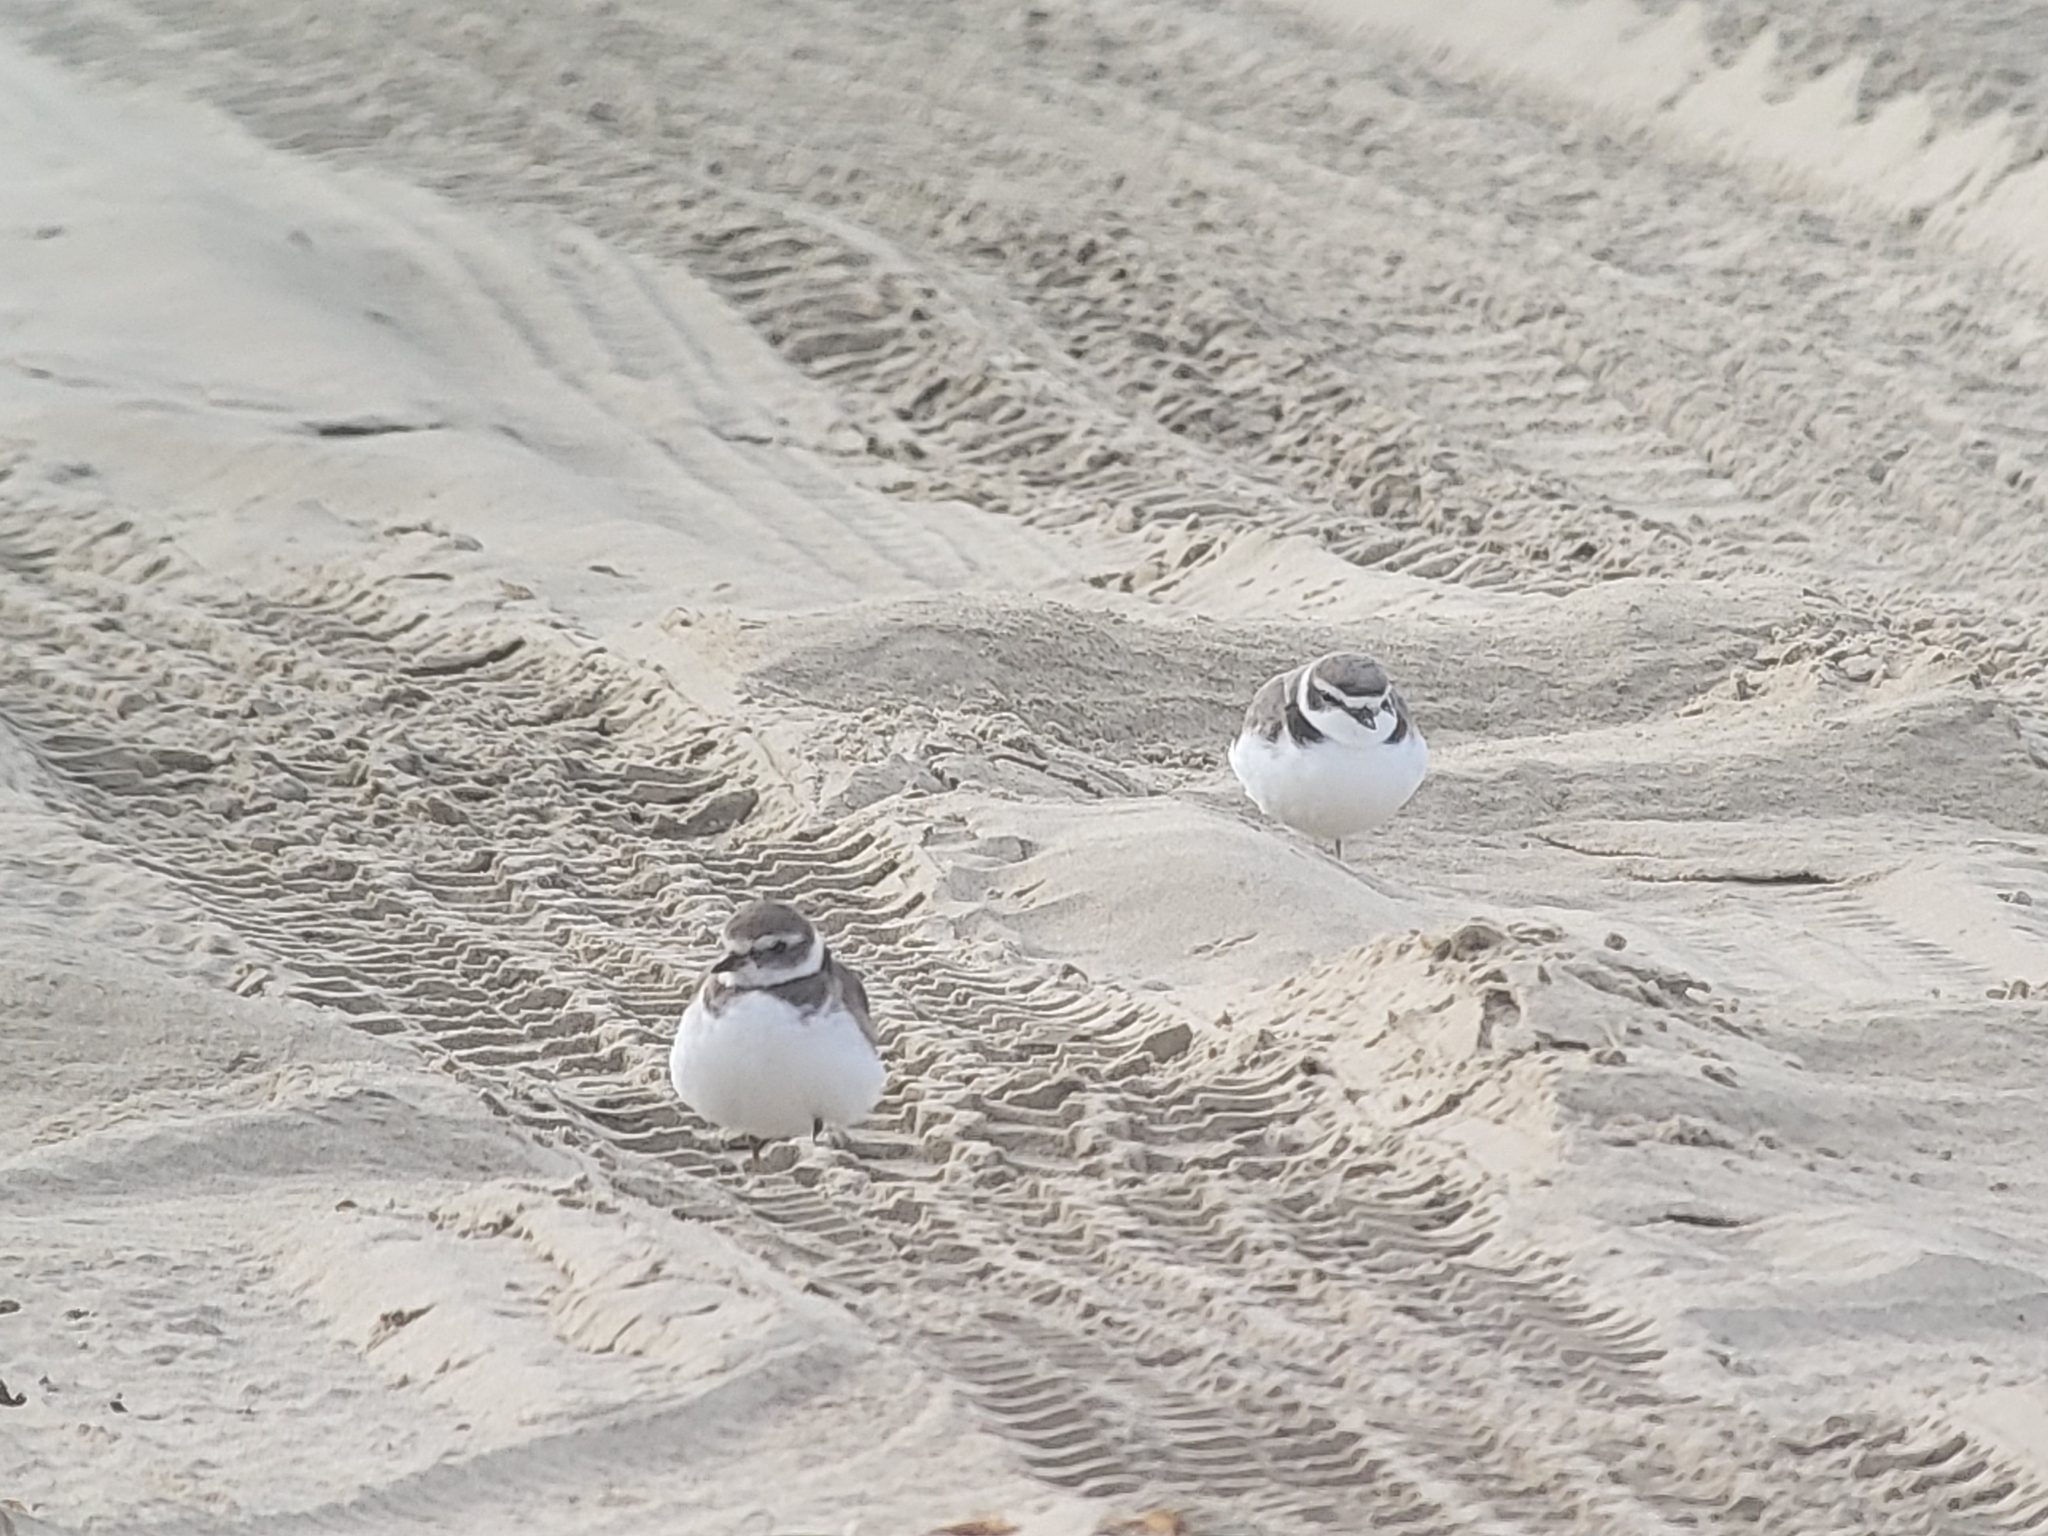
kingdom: Animalia
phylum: Chordata
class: Aves
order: Charadriiformes
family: Charadriidae
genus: Anarhynchus
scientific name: Anarhynchus
